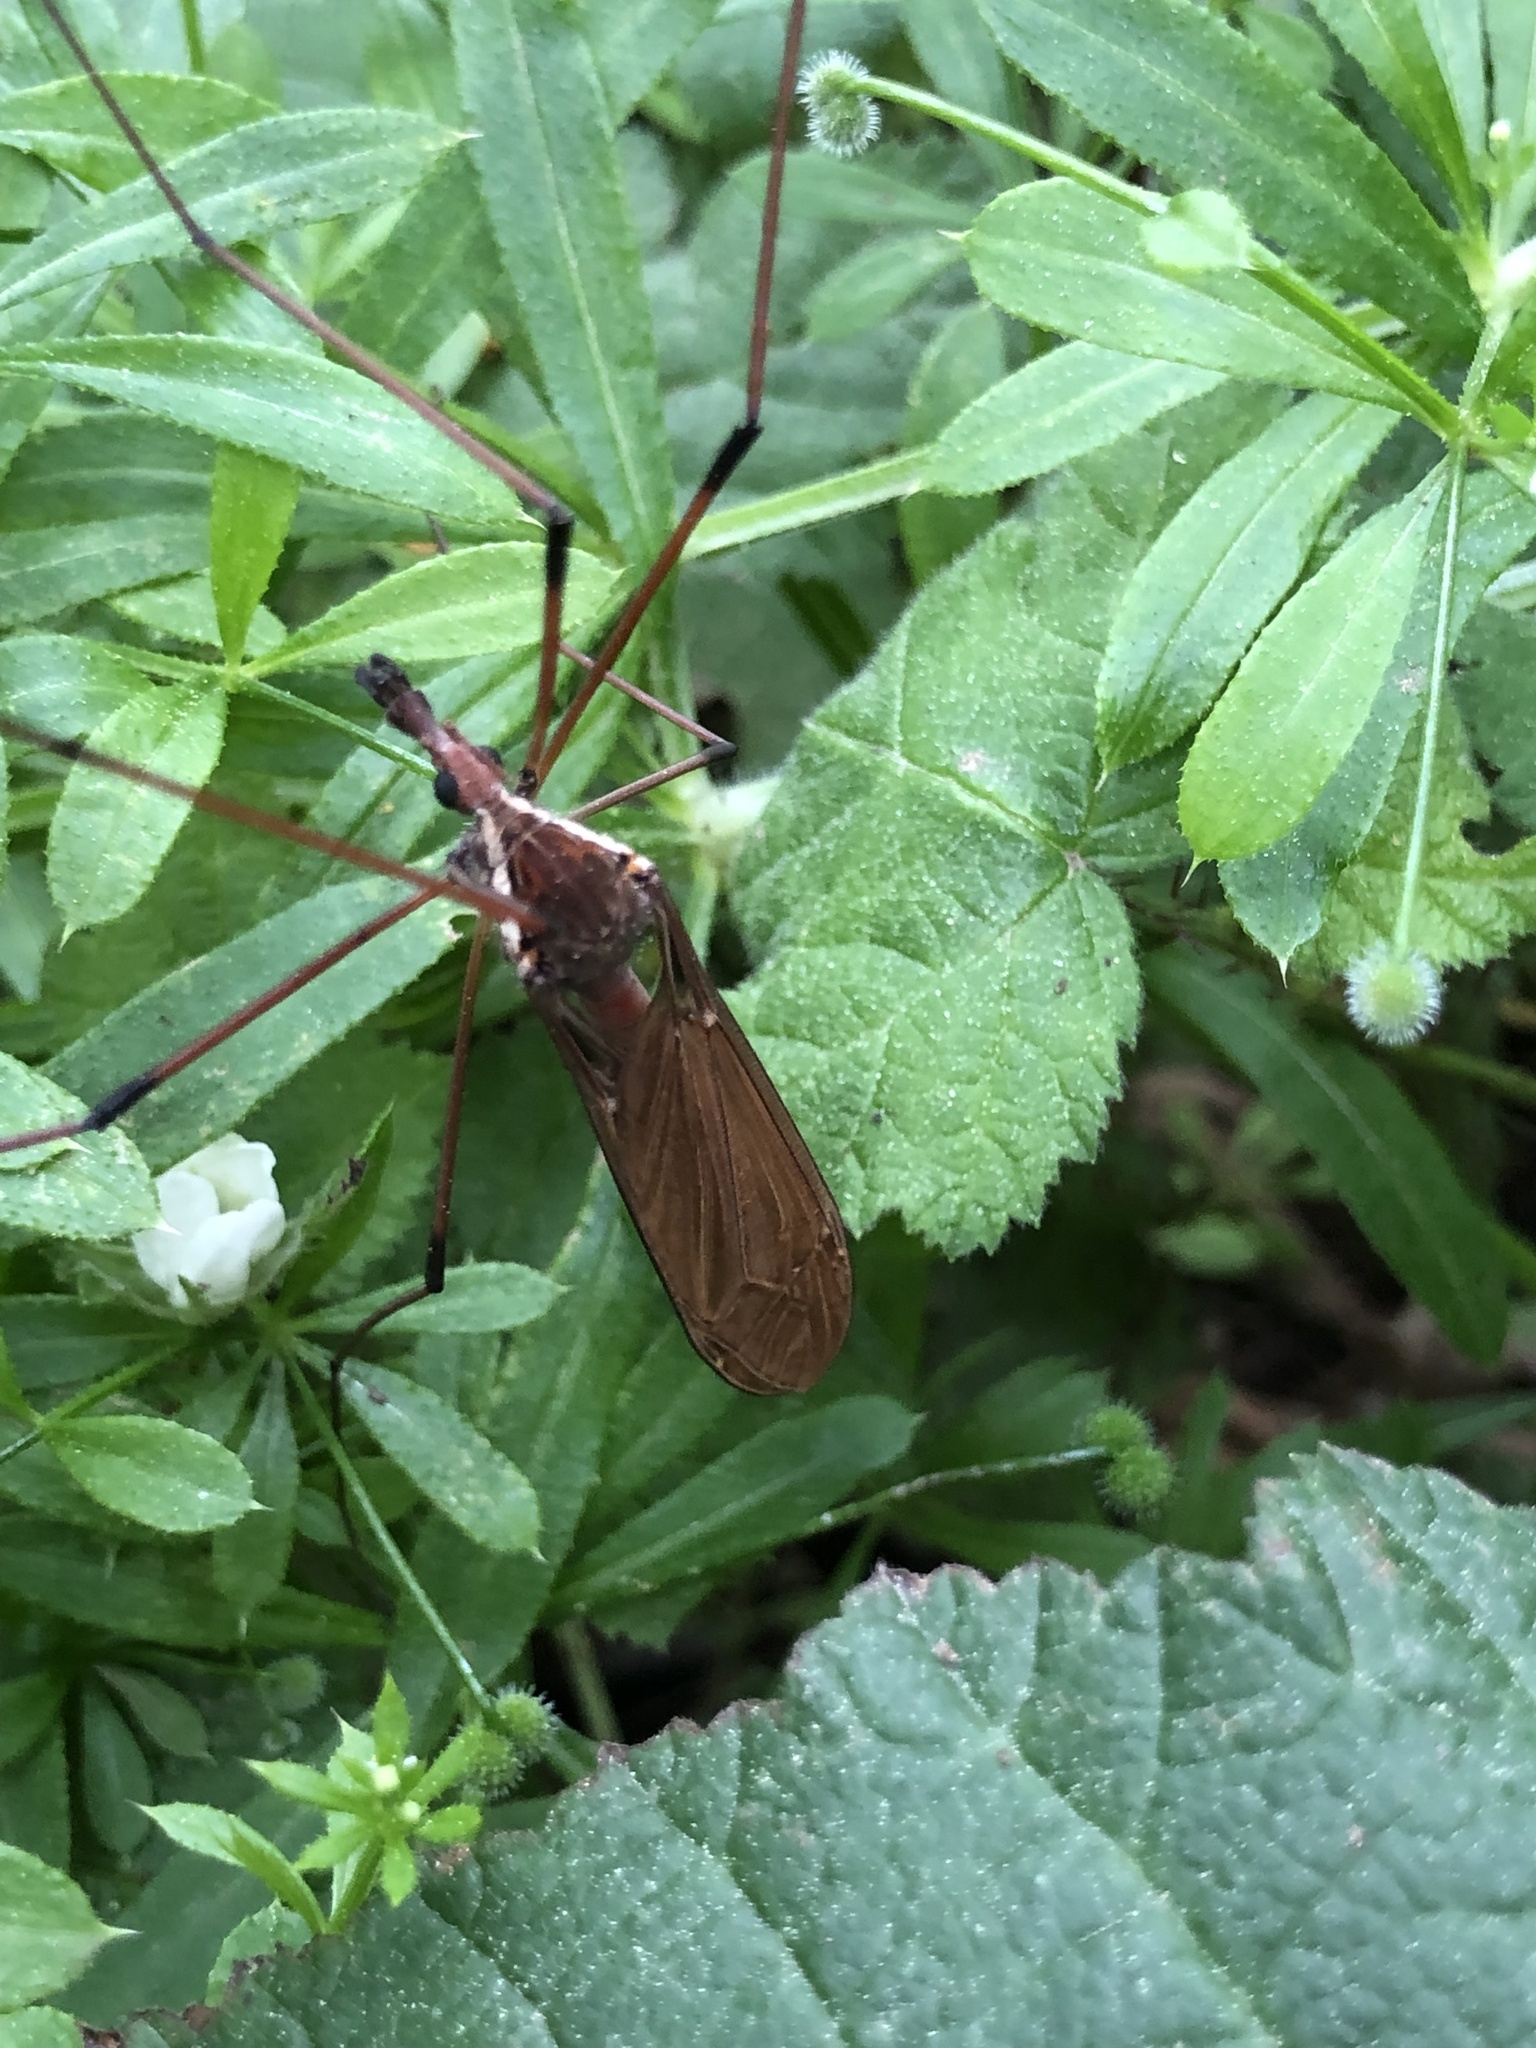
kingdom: Animalia
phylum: Arthropoda
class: Insecta
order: Diptera
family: Tipulidae
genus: Holorusia
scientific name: Holorusia hespera
